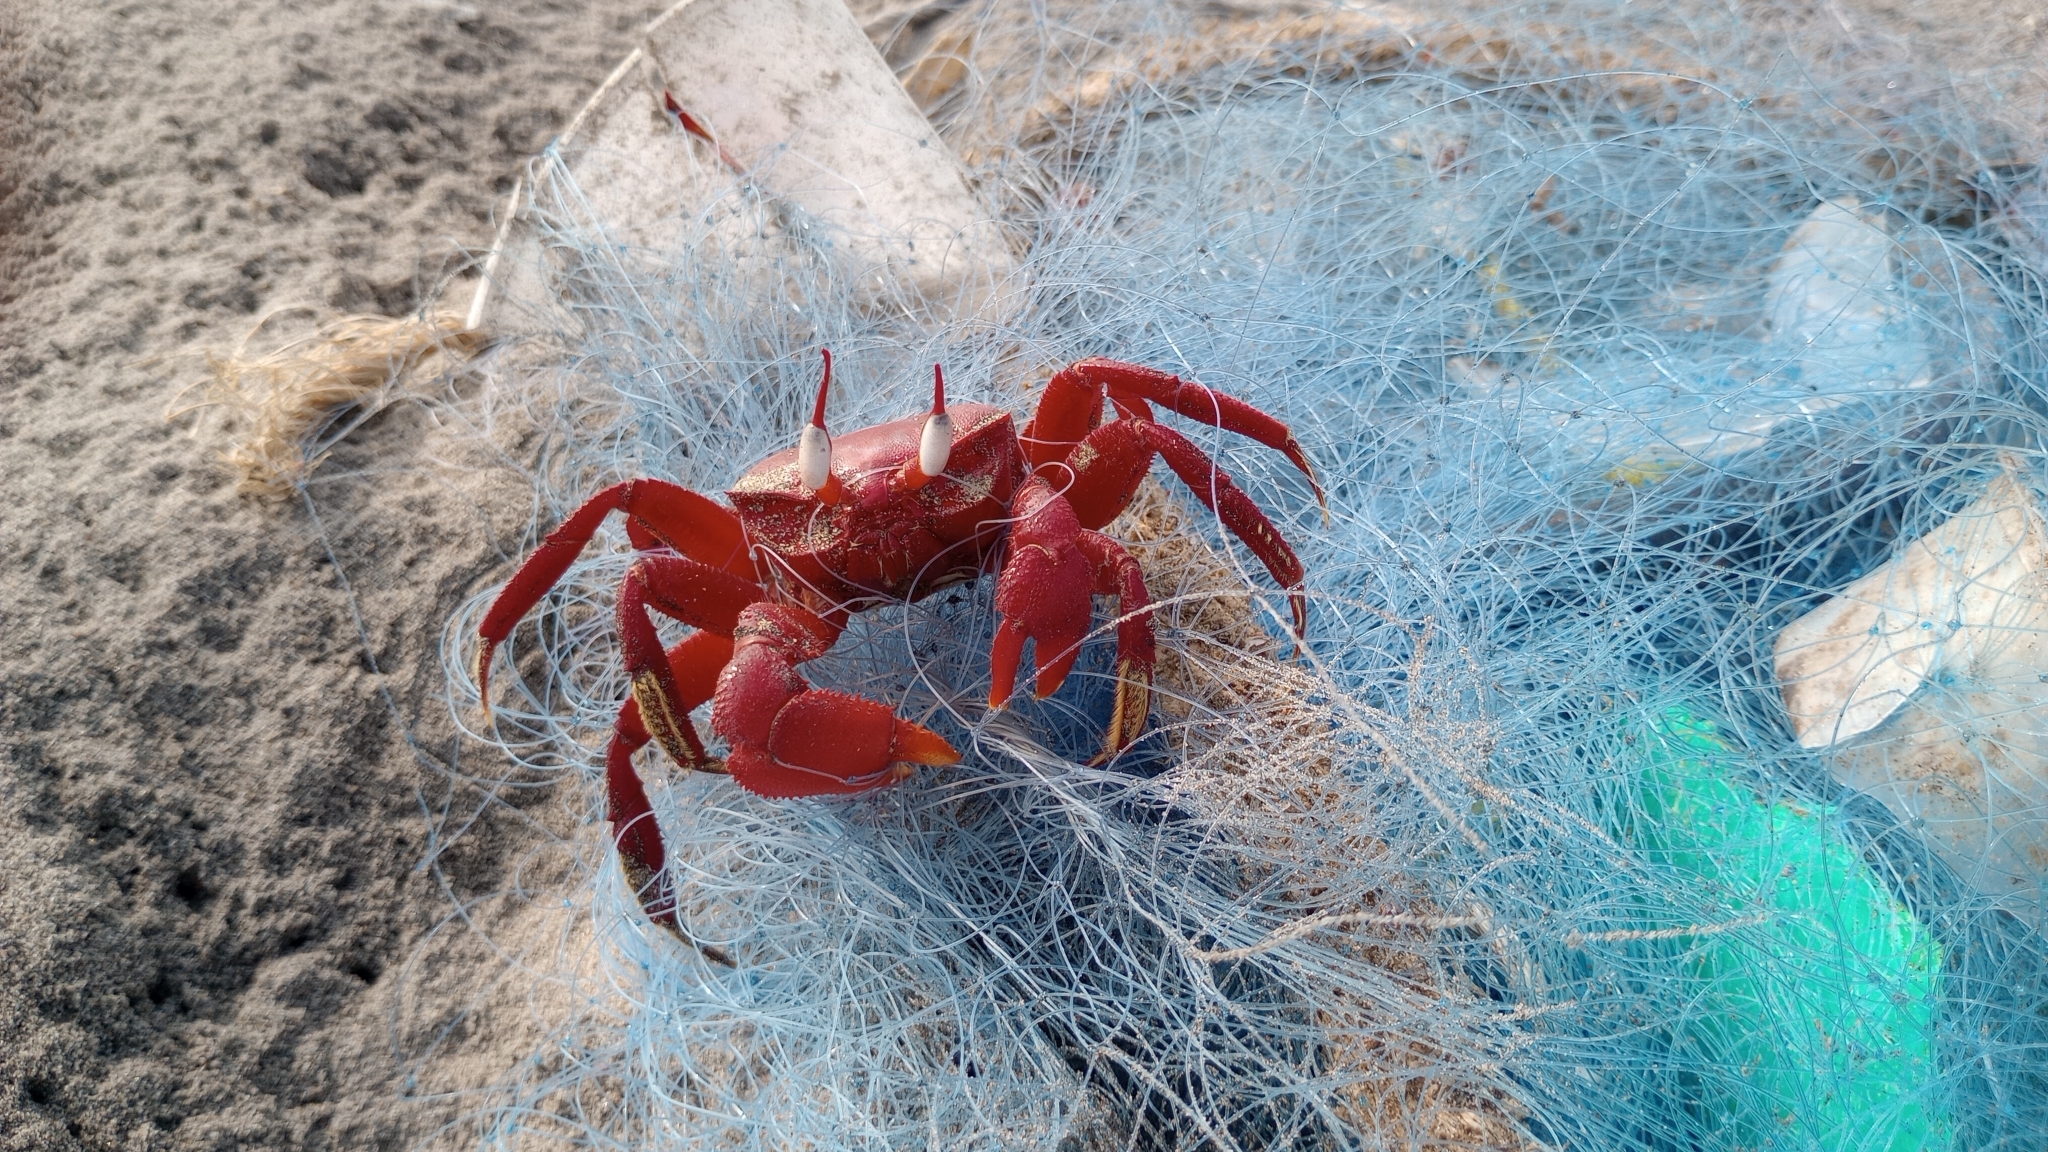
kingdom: Animalia
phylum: Arthropoda
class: Malacostraca
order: Decapoda
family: Ocypodidae
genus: Ocypode
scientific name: Ocypode macrocera
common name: Red ghost crab
